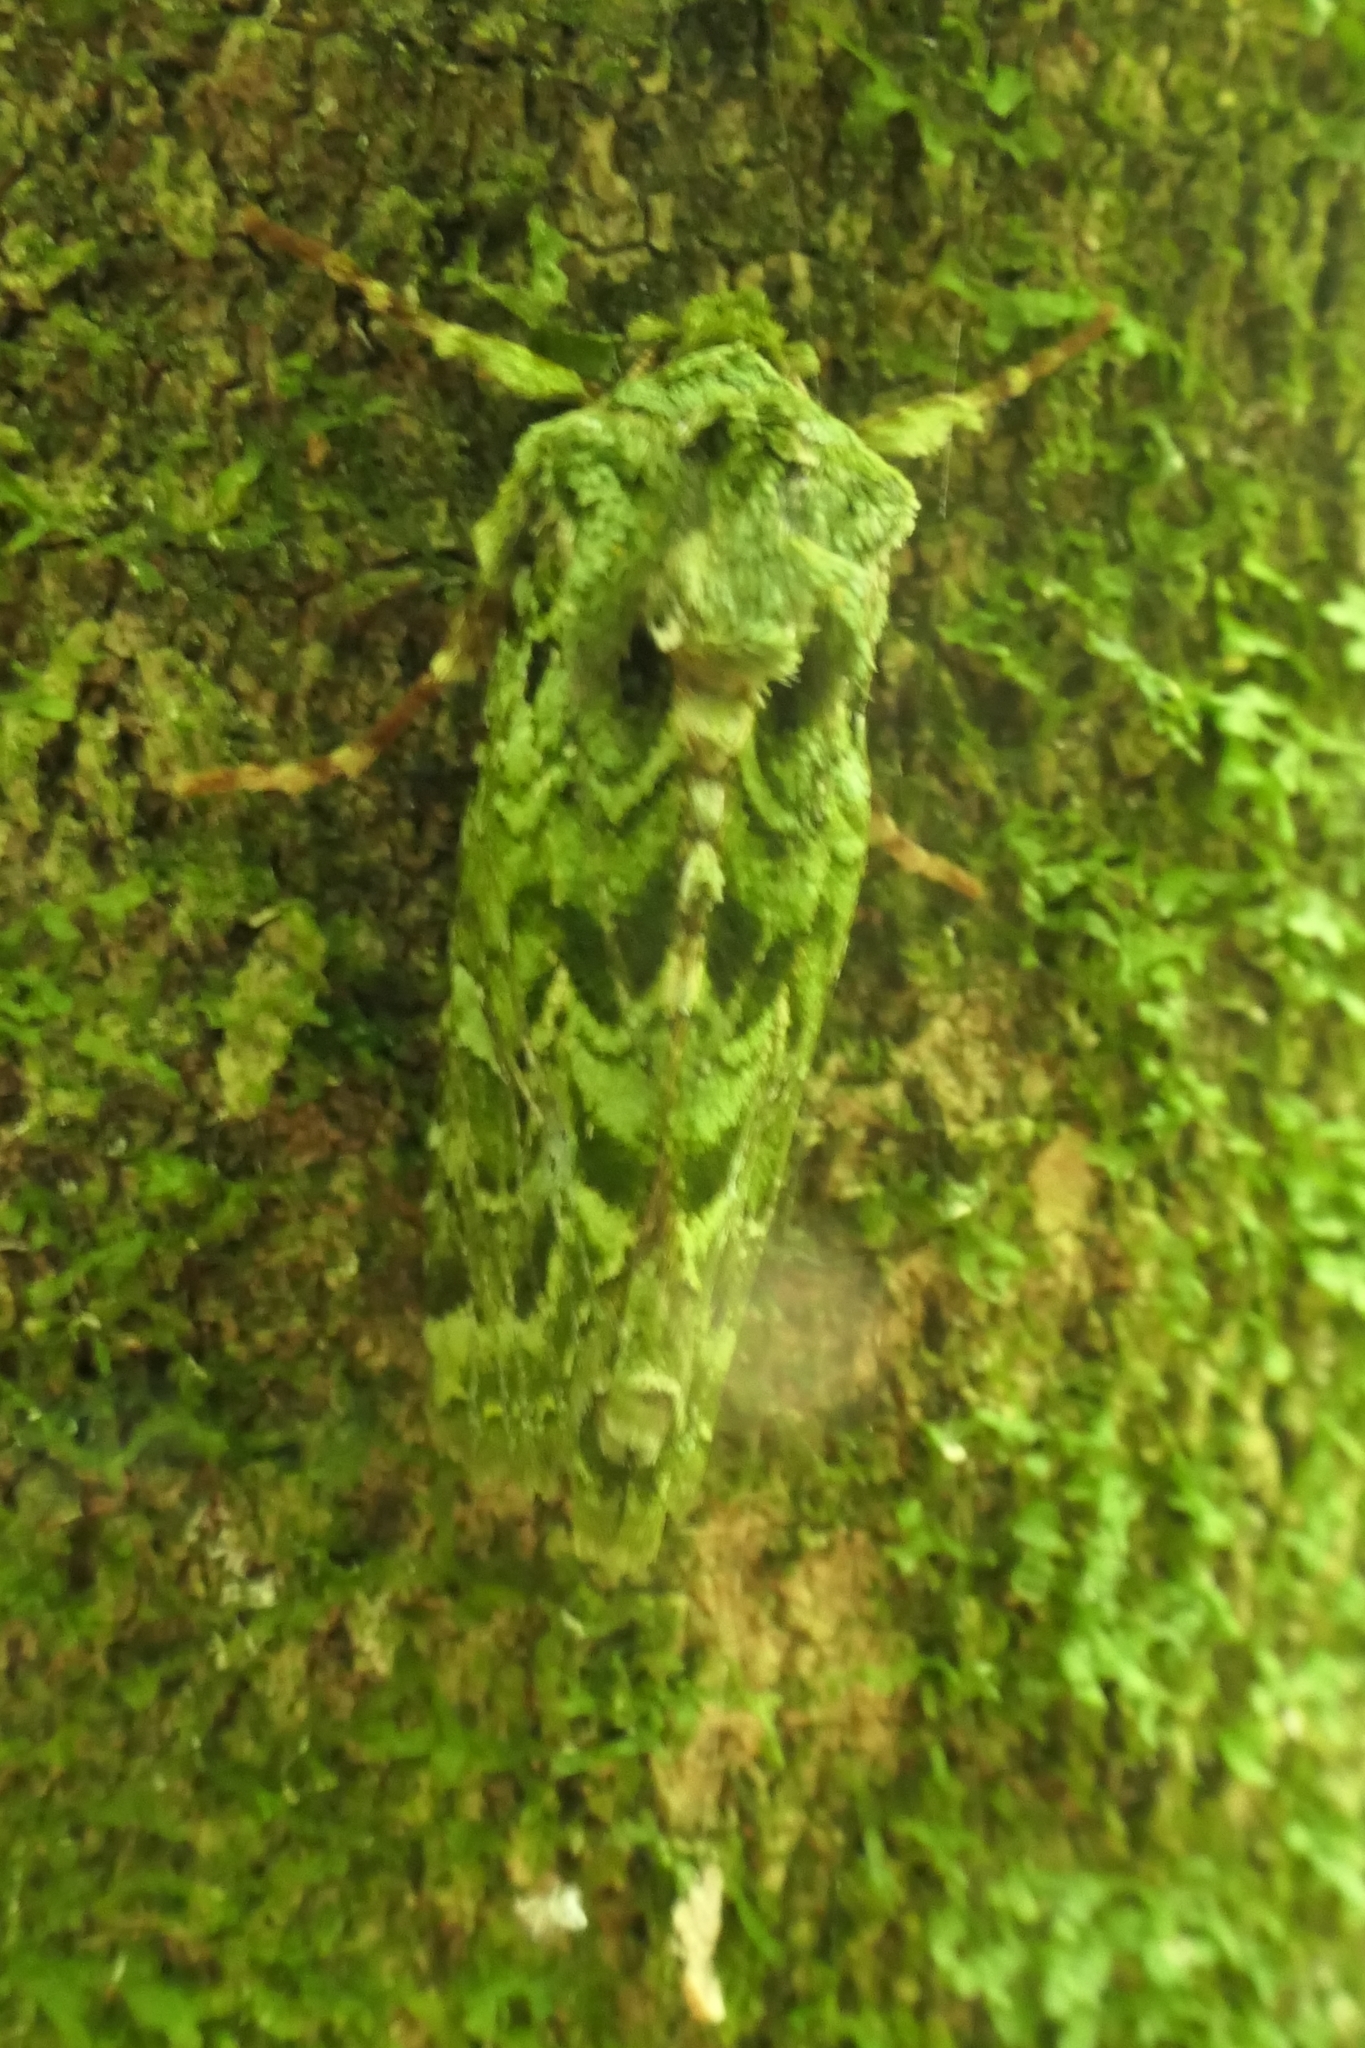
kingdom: Animalia
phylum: Arthropoda
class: Insecta
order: Lepidoptera
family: Noctuidae
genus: Feredayia
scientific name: Feredayia grammosa
